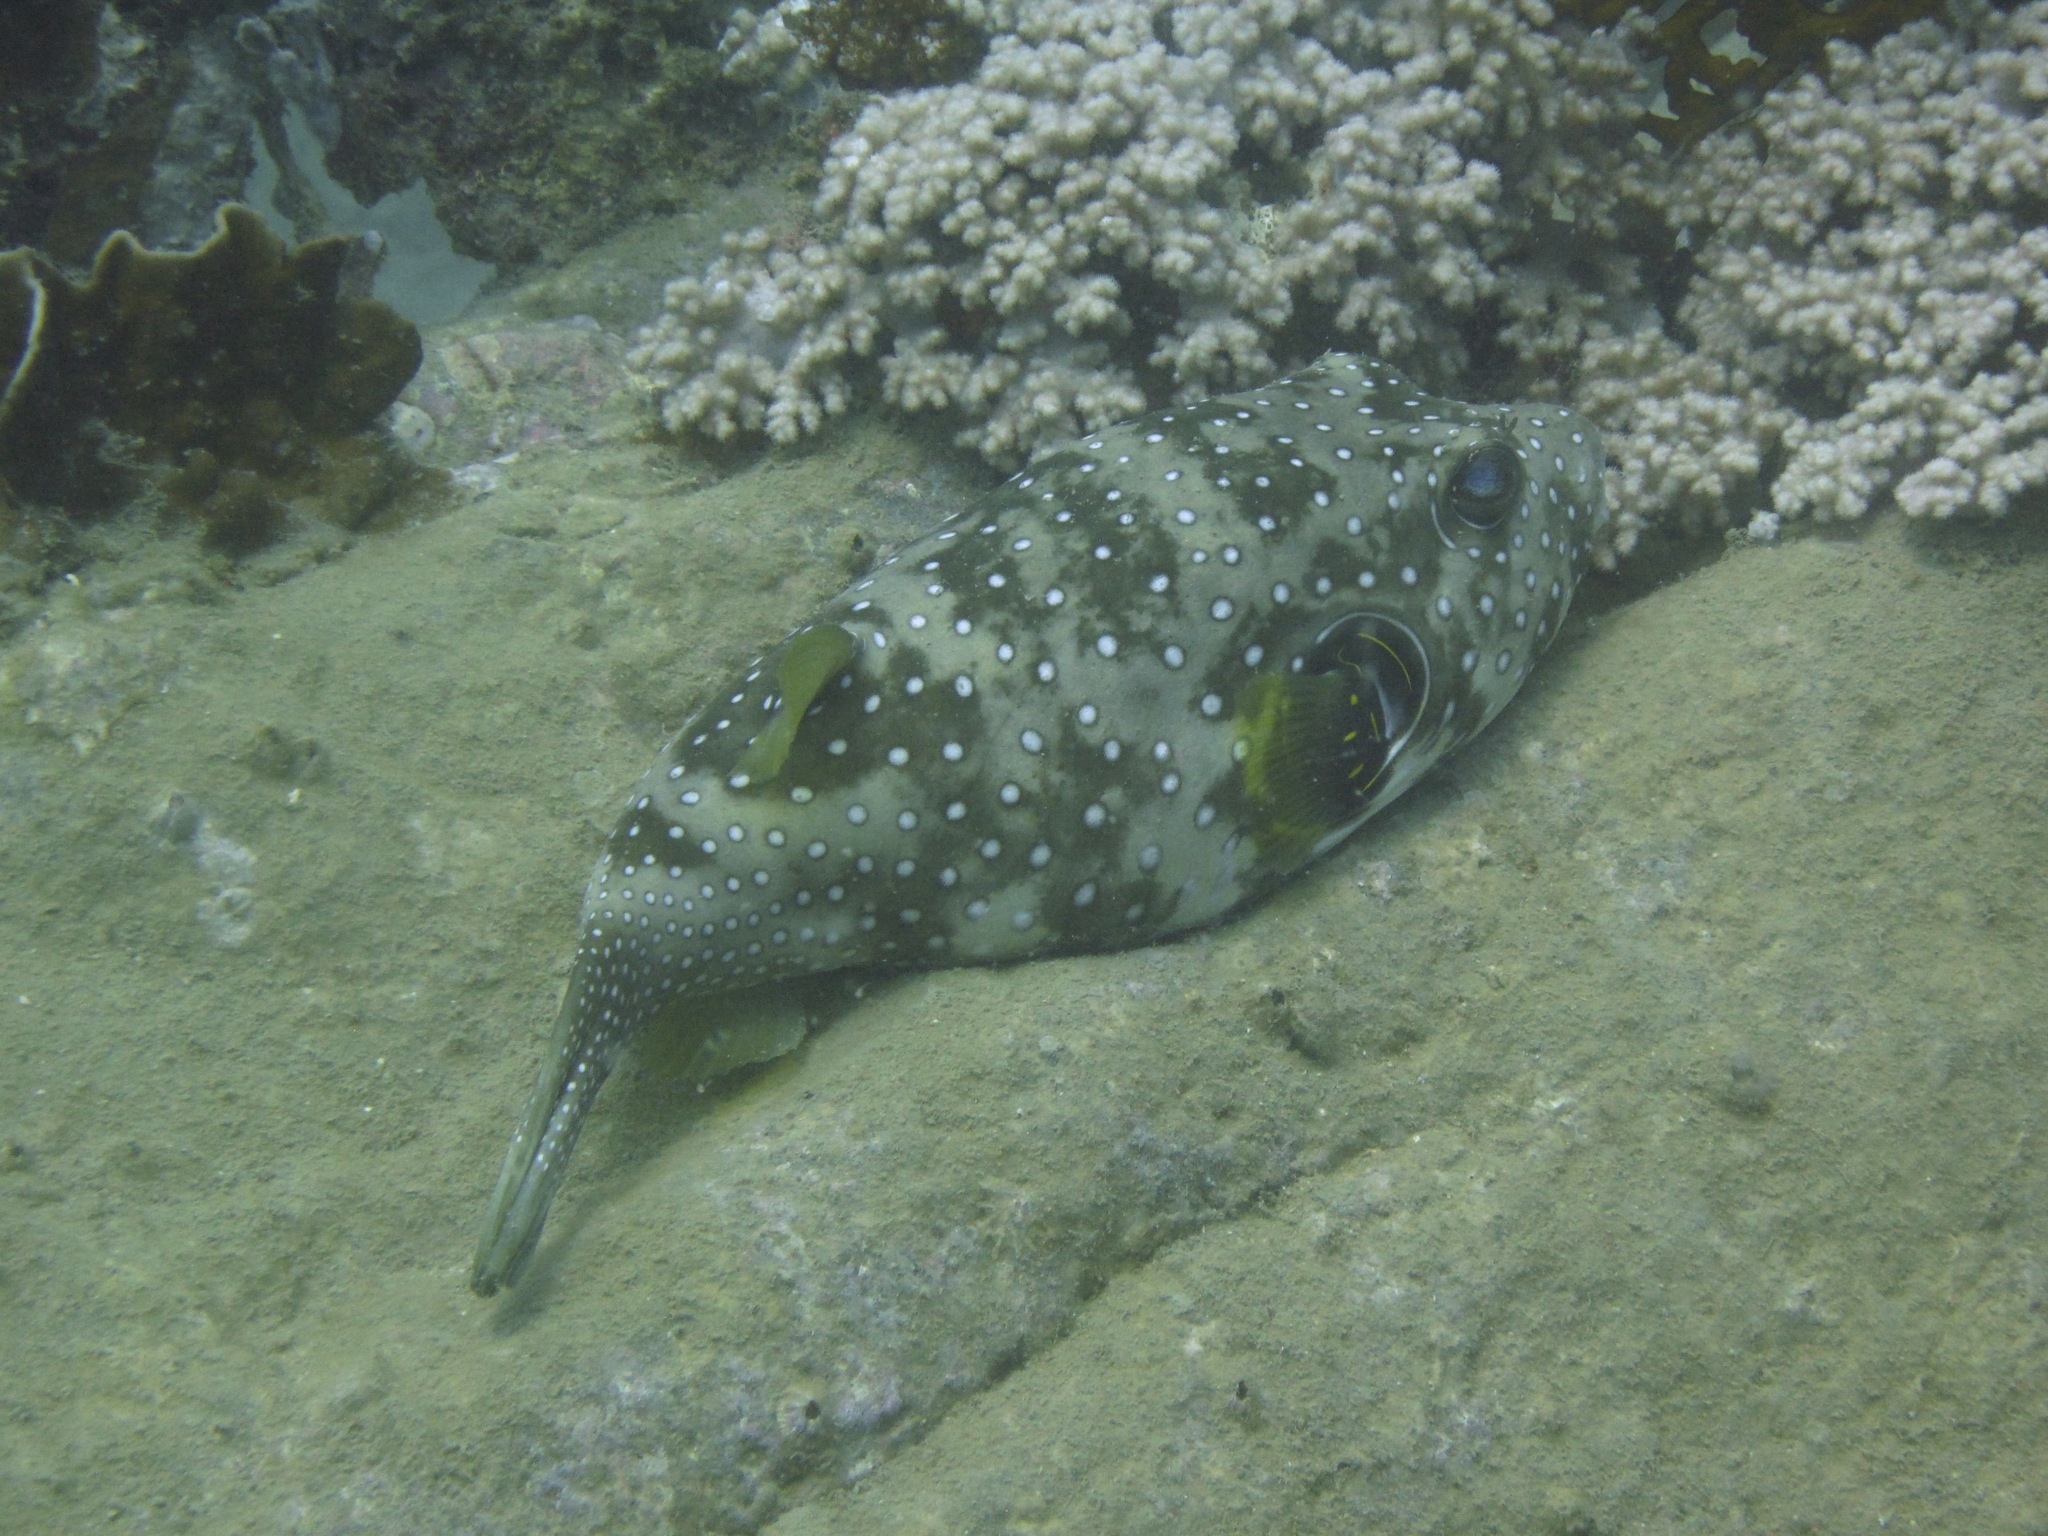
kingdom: Animalia
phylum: Chordata
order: Tetraodontiformes
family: Tetraodontidae
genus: Arothron
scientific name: Arothron hispidus
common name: Stripebelly puffer
